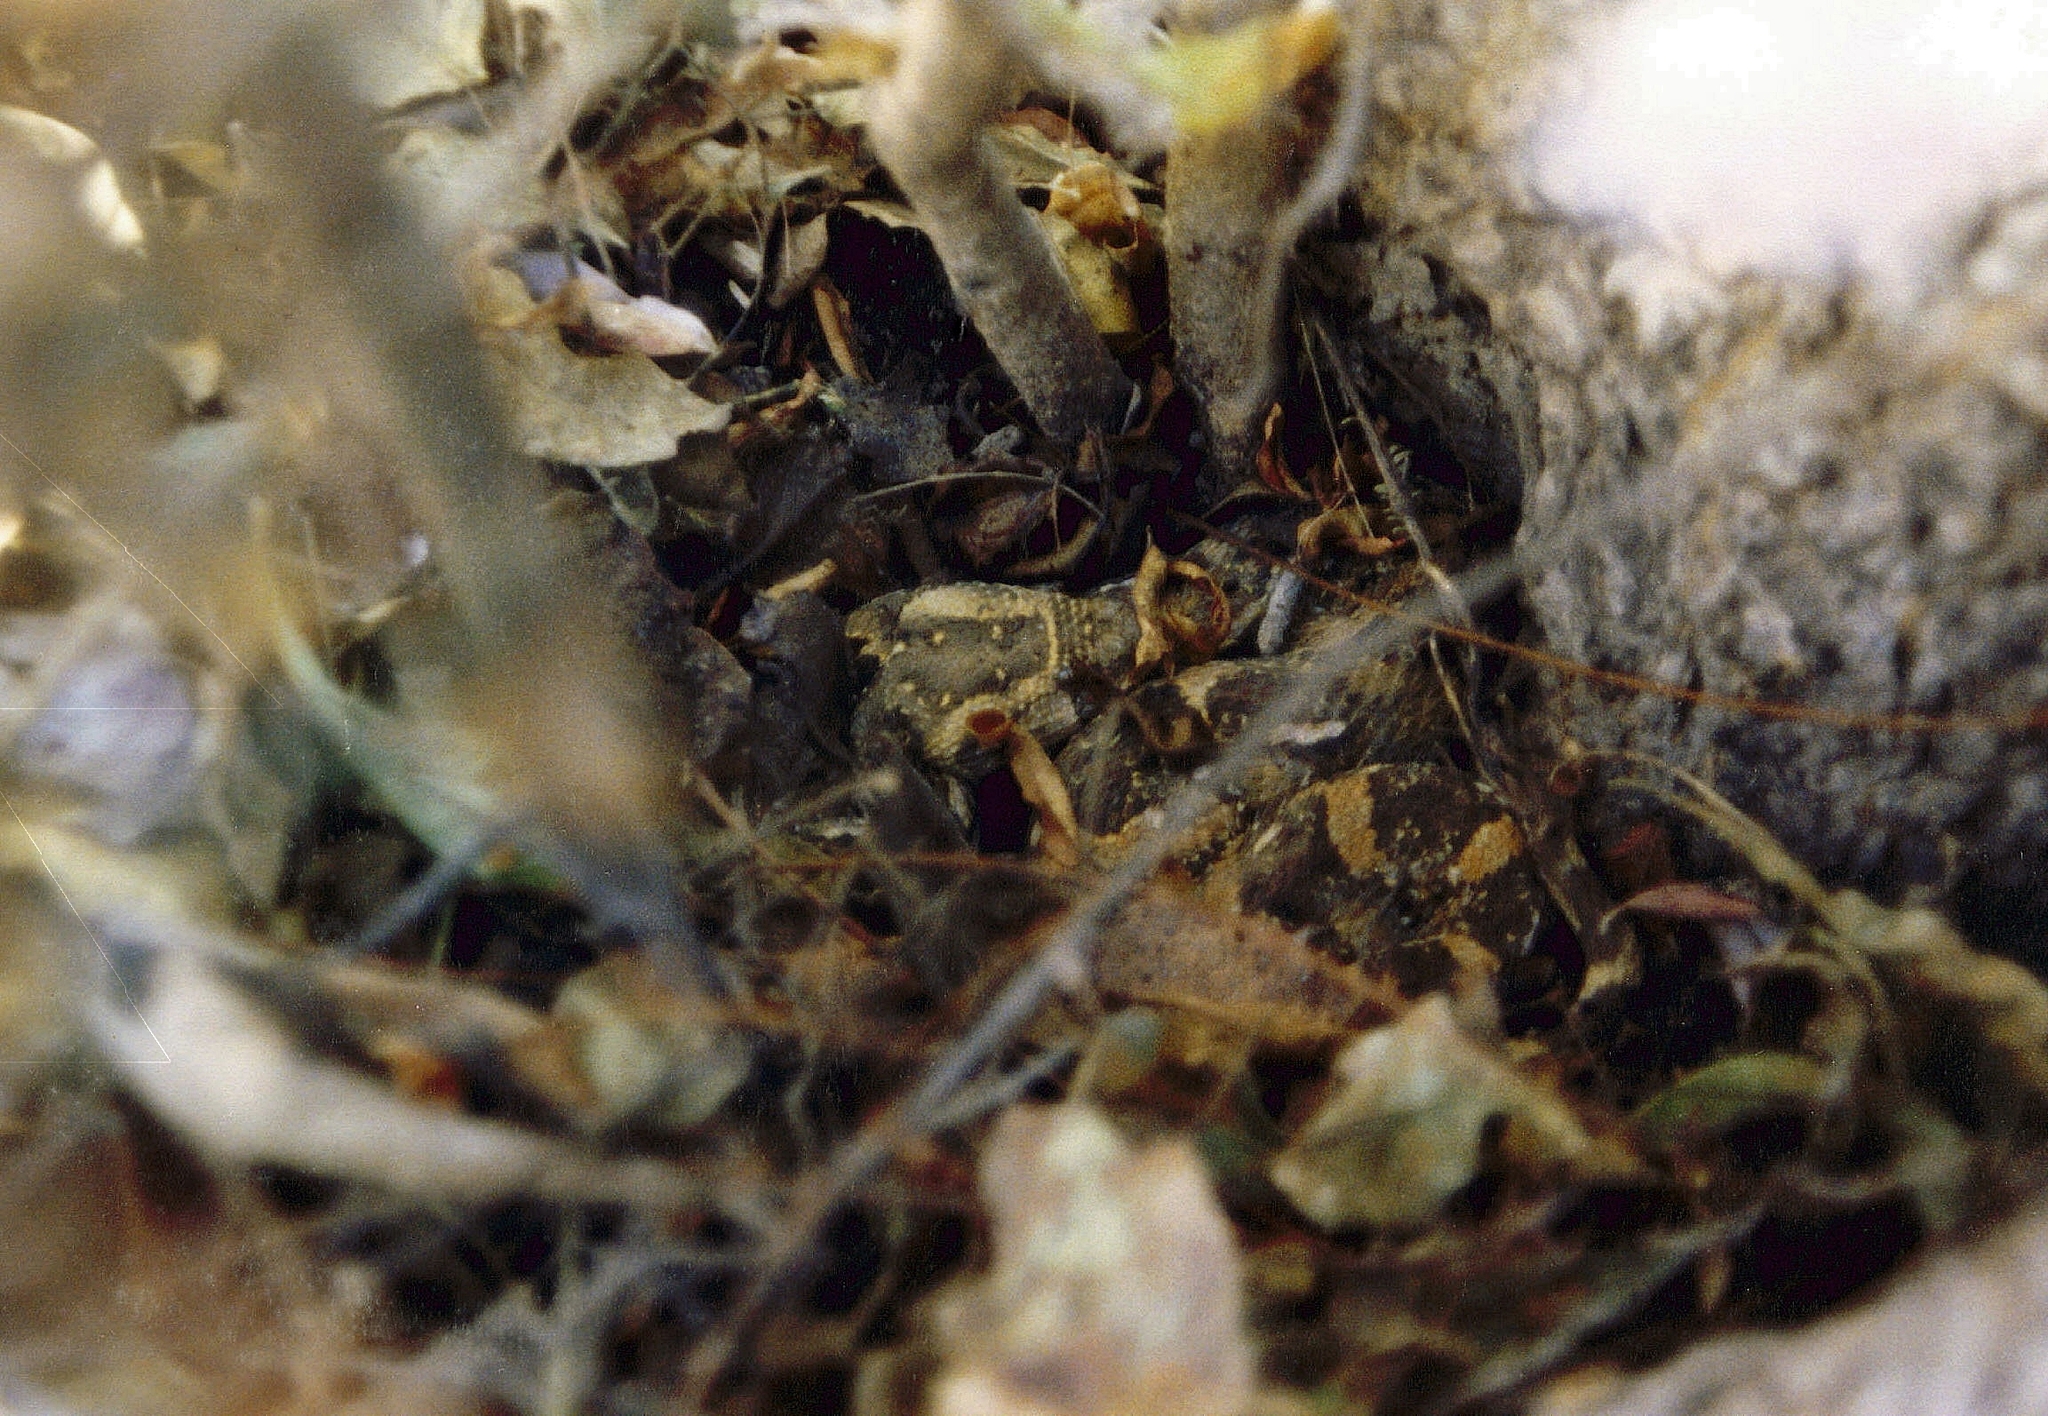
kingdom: Animalia
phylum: Chordata
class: Squamata
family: Viperidae
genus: Bitis
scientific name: Bitis arietans
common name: Puff adder
